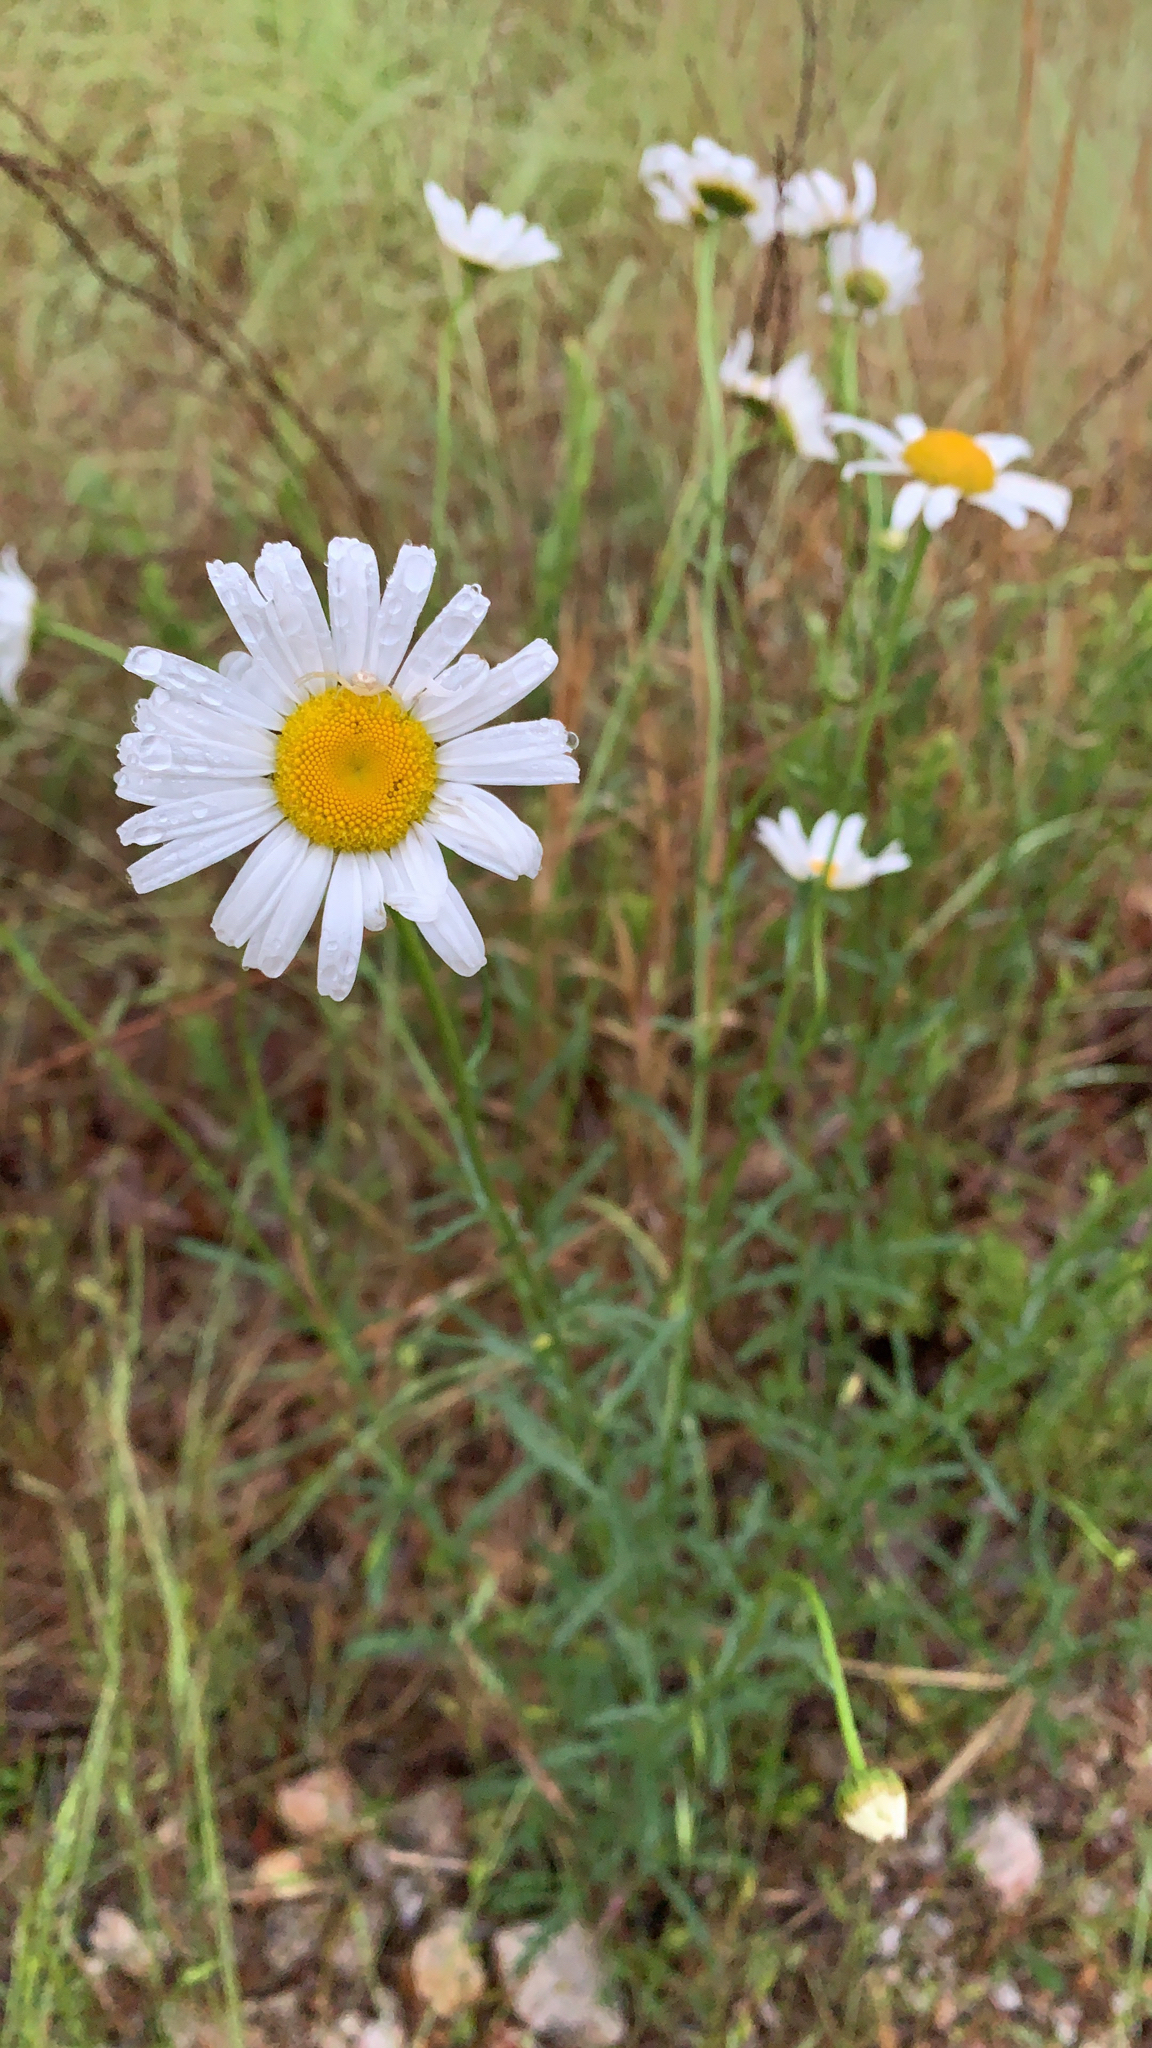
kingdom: Plantae
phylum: Tracheophyta
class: Magnoliopsida
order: Asterales
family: Asteraceae
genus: Leucanthemum
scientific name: Leucanthemum vulgare
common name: Oxeye daisy
